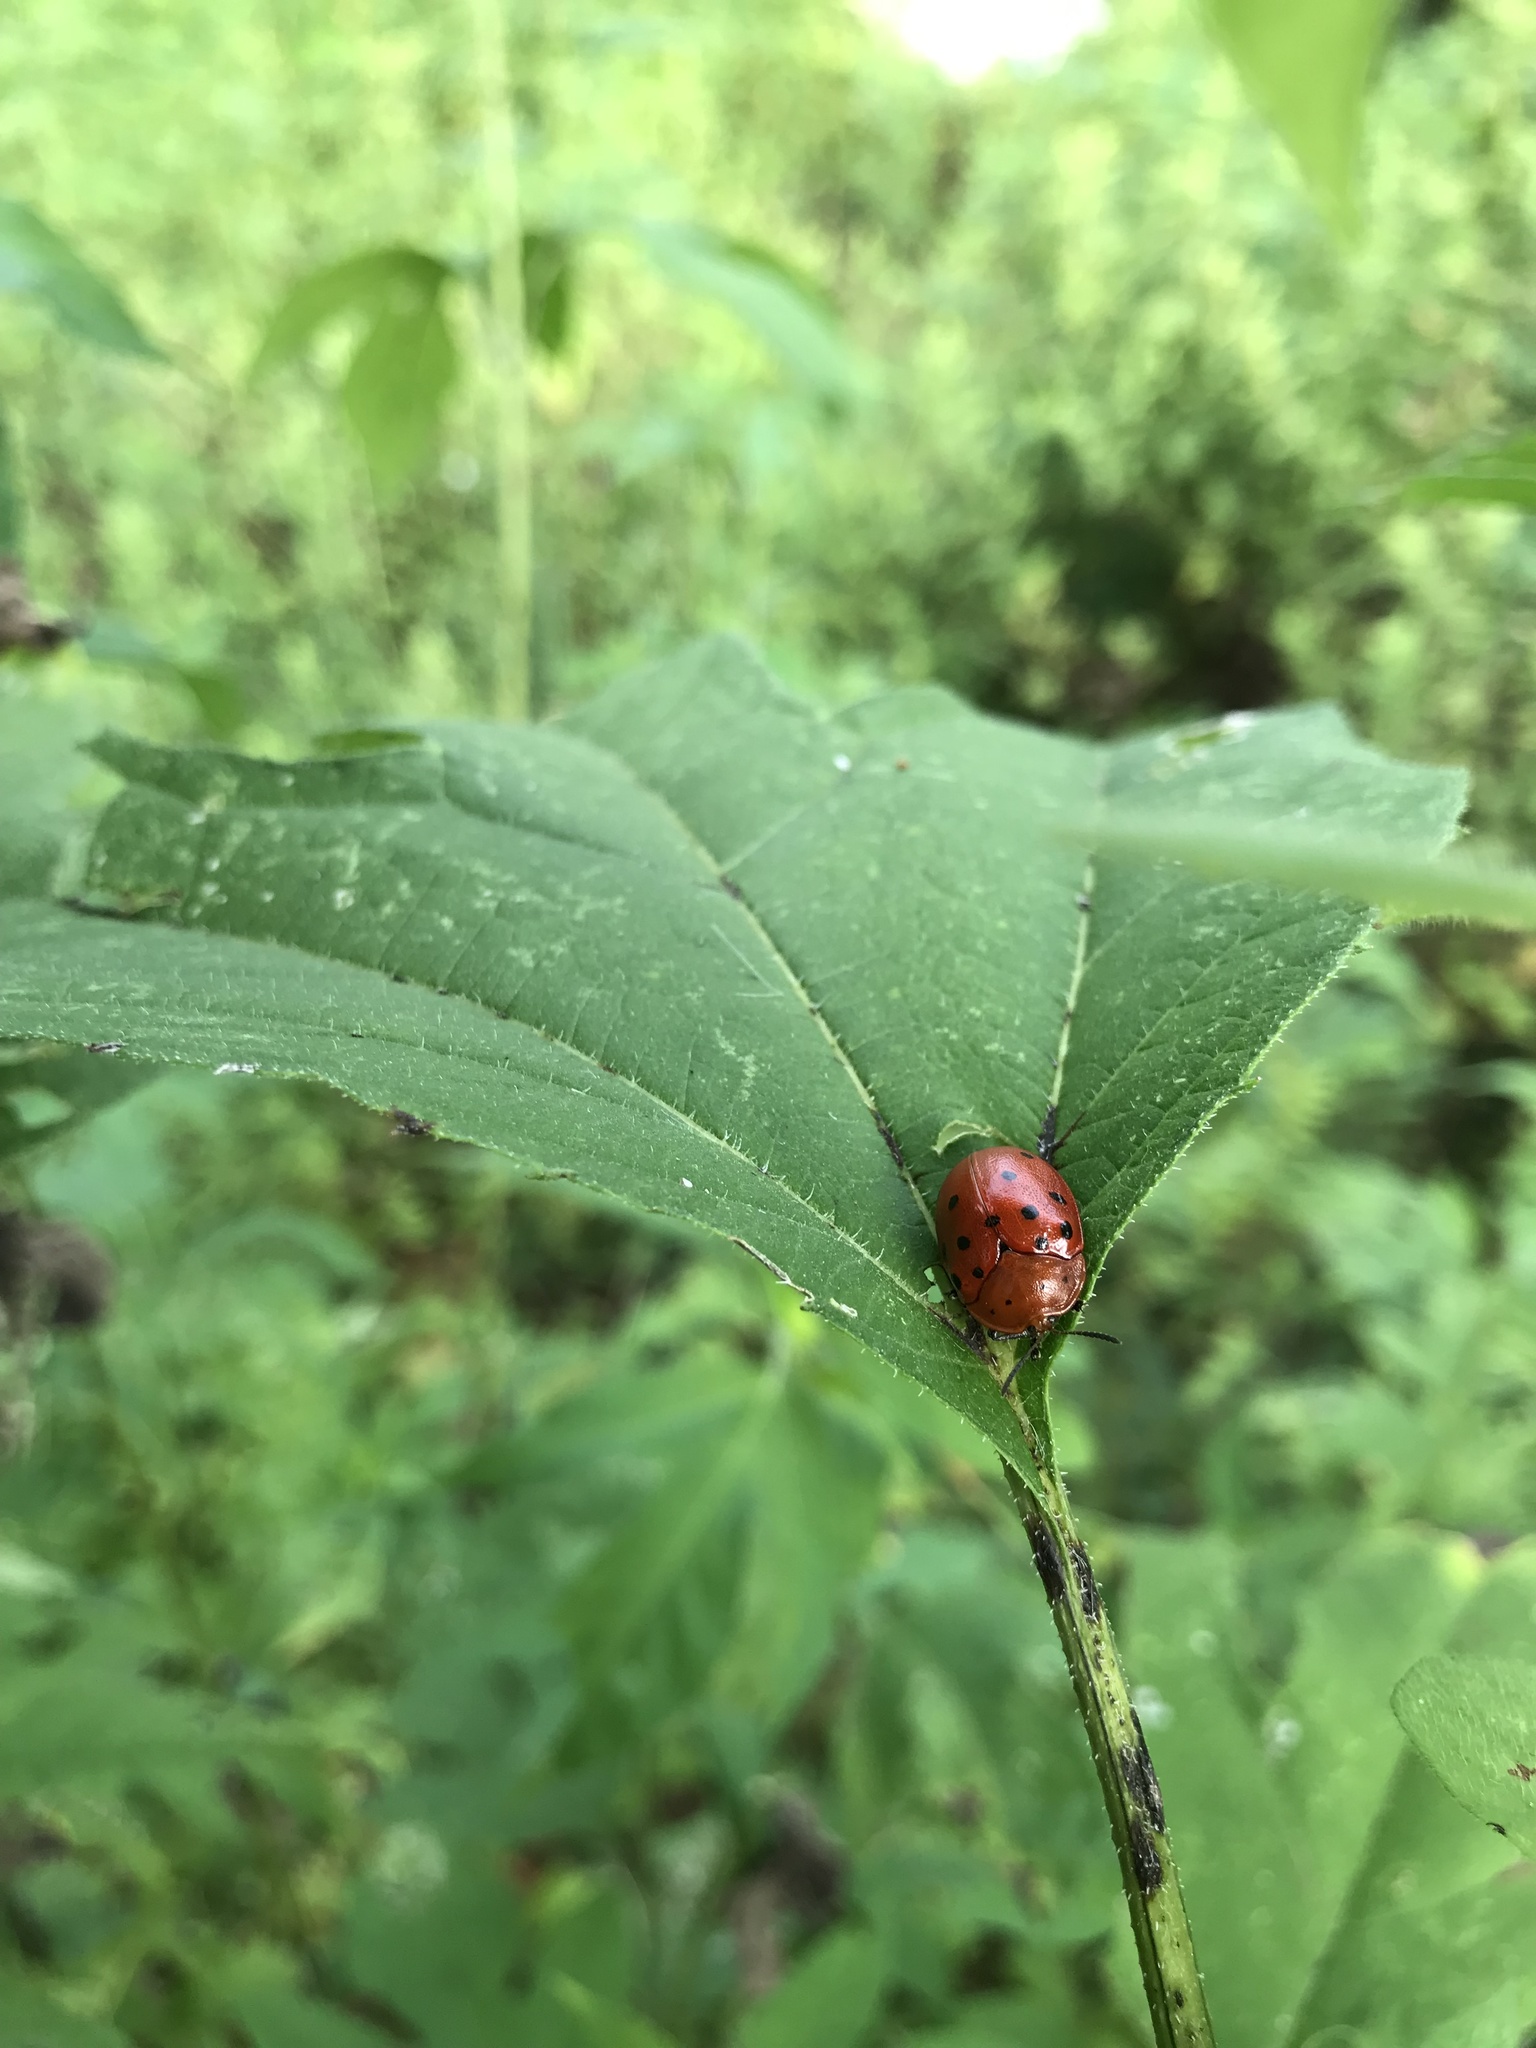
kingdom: Animalia
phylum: Arthropoda
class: Insecta
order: Coleoptera
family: Chrysomelidae
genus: Chelymorpha
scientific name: Chelymorpha cassidea
